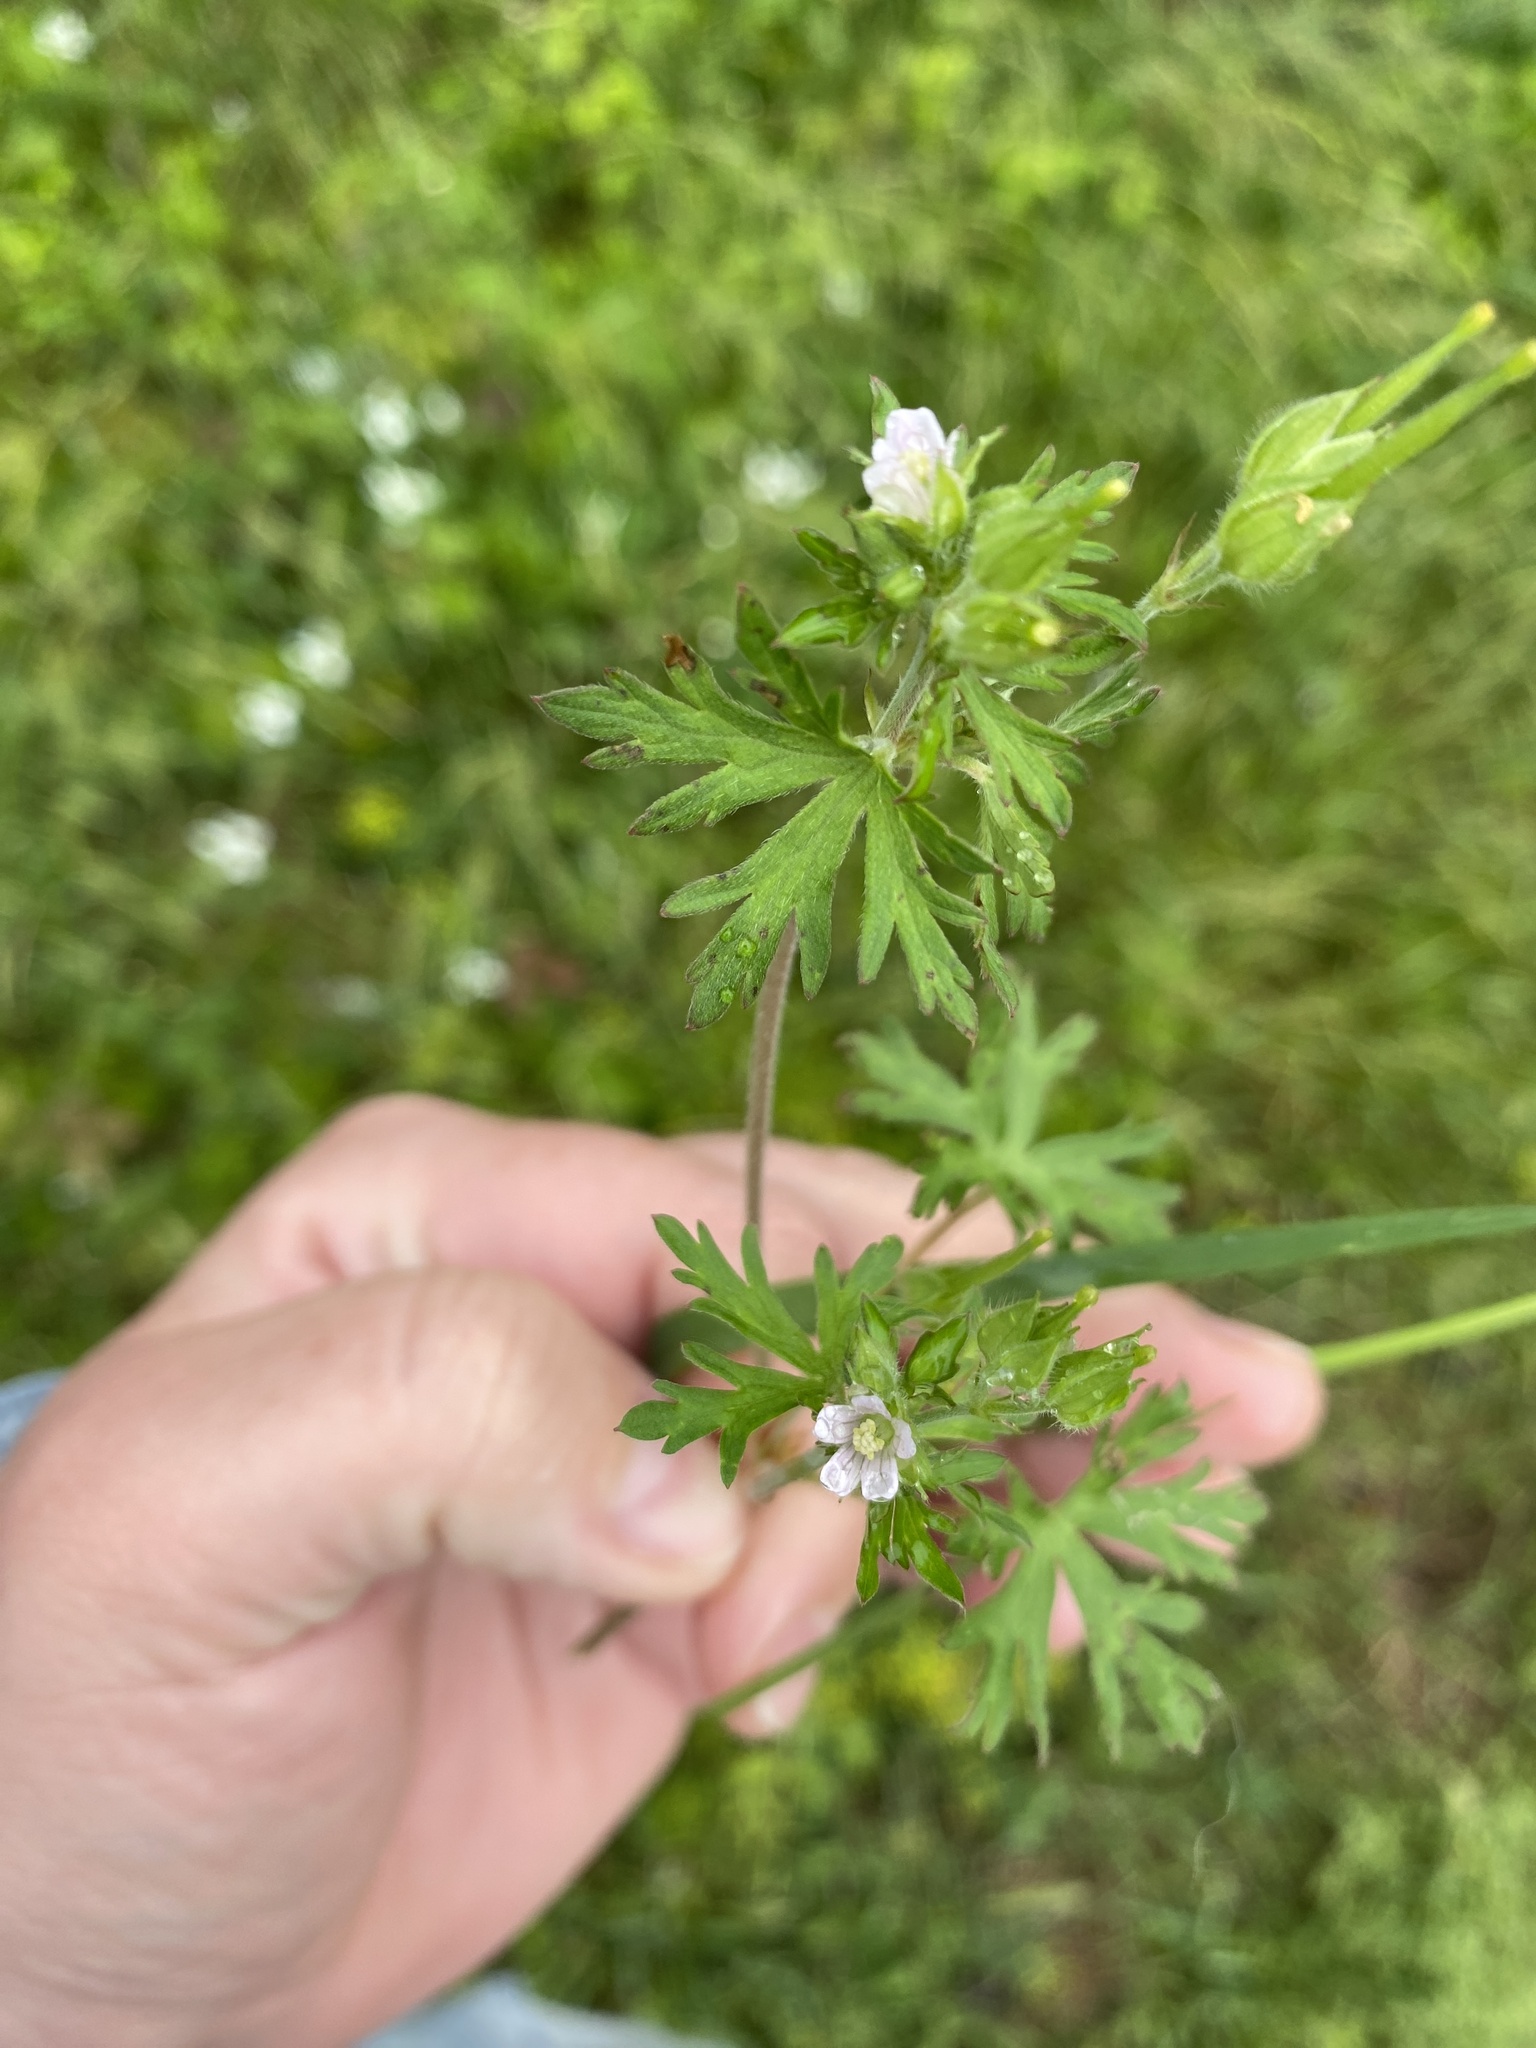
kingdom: Plantae
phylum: Tracheophyta
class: Magnoliopsida
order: Geraniales
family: Geraniaceae
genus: Geranium
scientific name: Geranium carolinianum
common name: Carolina crane's-bill
